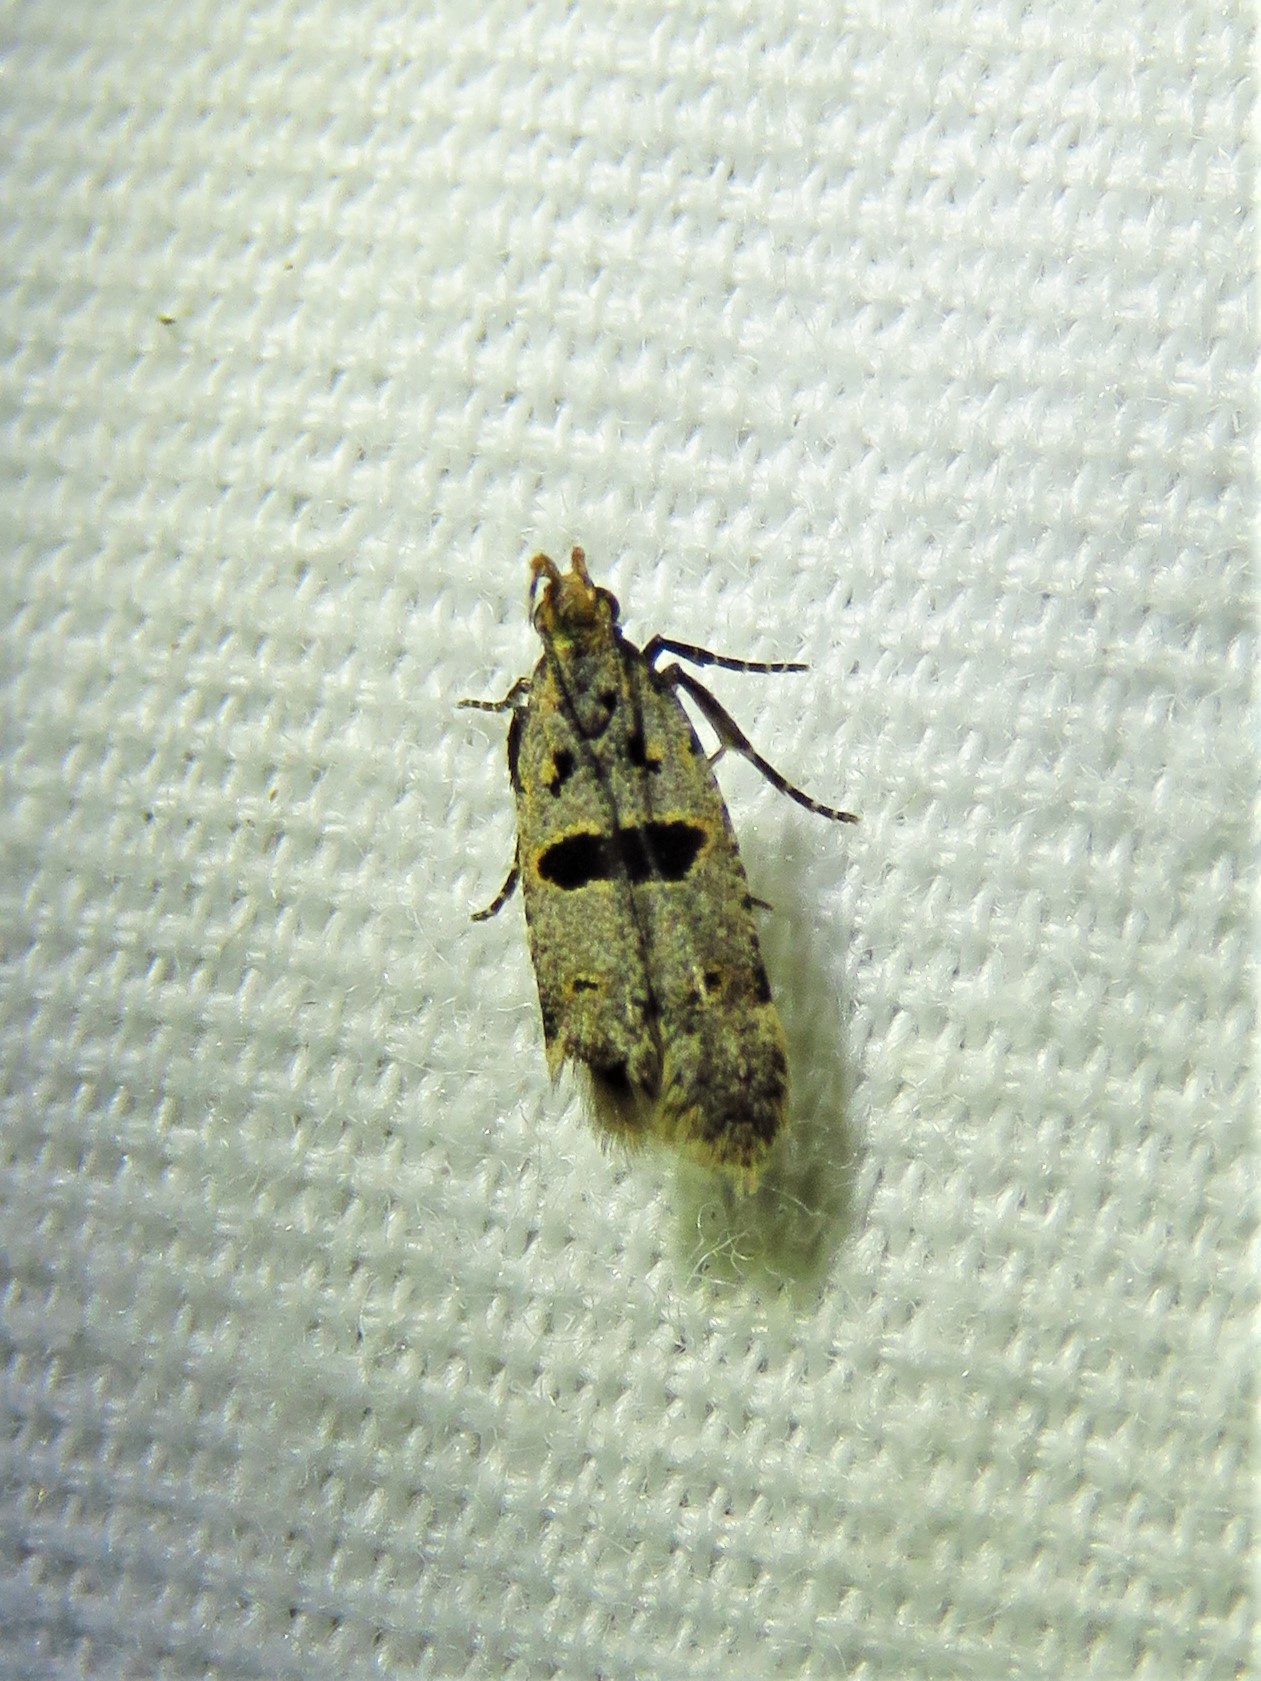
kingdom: Animalia
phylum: Arthropoda
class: Insecta
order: Lepidoptera
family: Gelechiidae
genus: Deltophora
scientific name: Deltophora glandiferella
